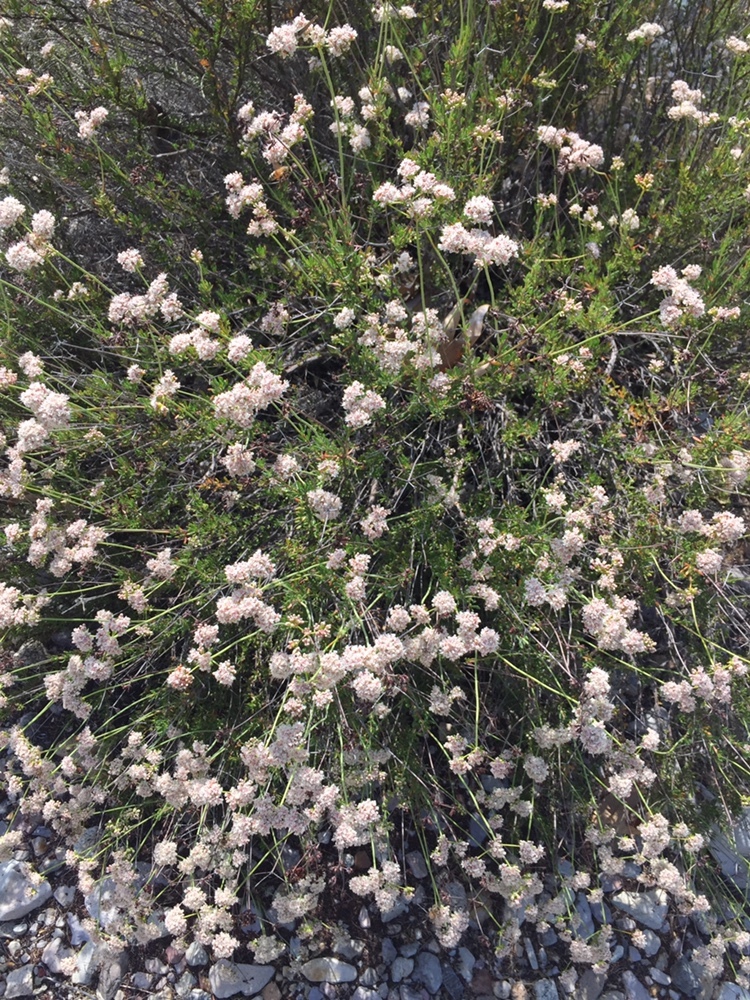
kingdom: Plantae
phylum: Tracheophyta
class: Magnoliopsida
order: Caryophyllales
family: Polygonaceae
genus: Eriogonum
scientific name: Eriogonum fasciculatum
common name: California wild buckwheat
